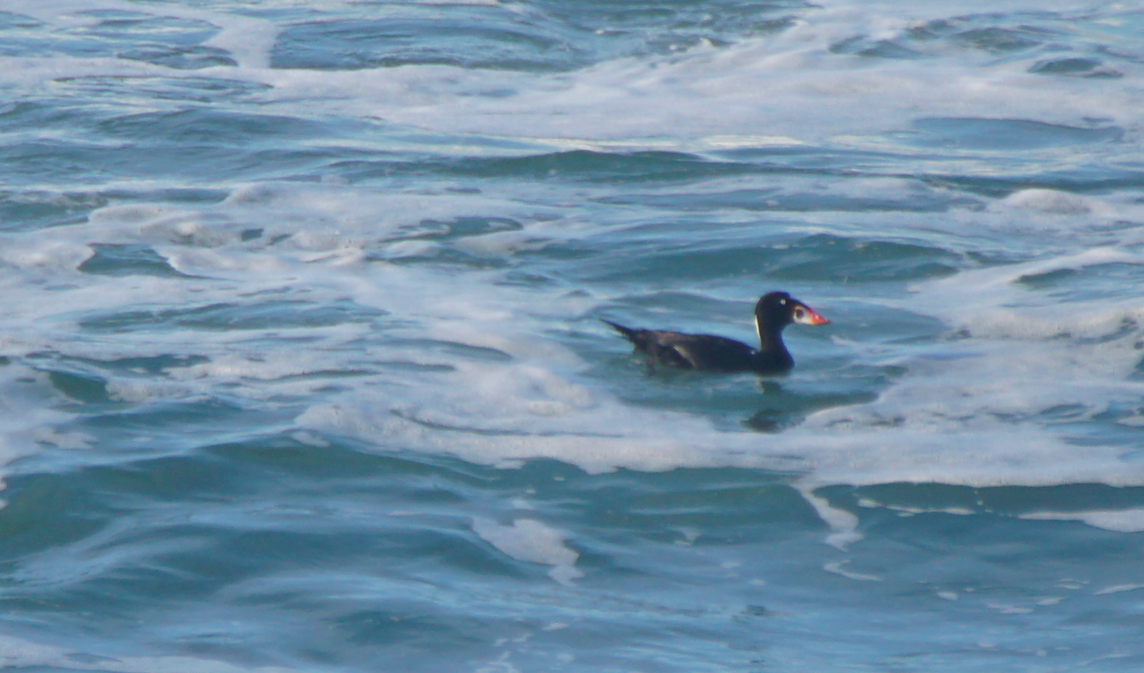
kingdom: Animalia
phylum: Chordata
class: Aves
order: Anseriformes
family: Anatidae
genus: Melanitta
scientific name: Melanitta perspicillata
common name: Surf scoter
